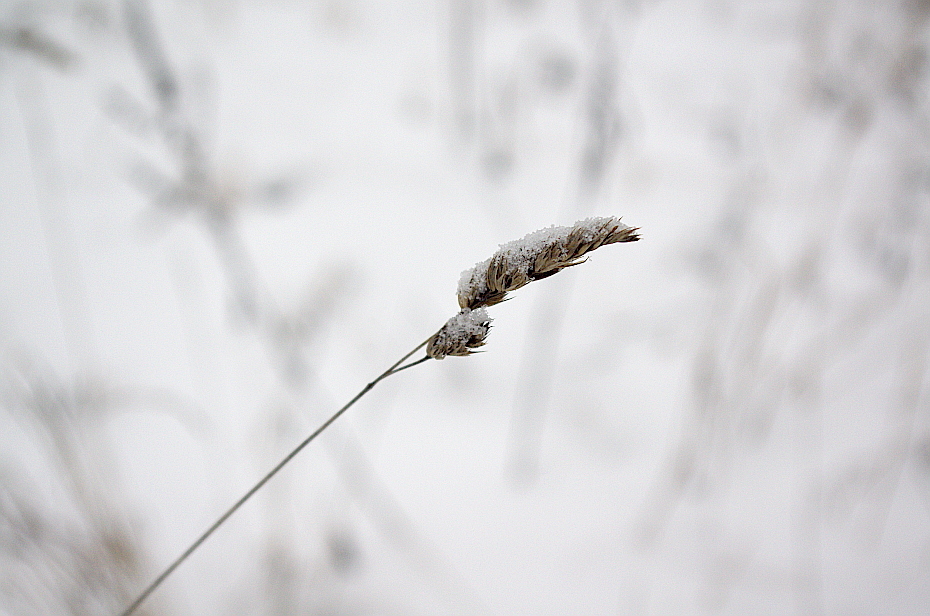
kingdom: Plantae
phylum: Tracheophyta
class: Liliopsida
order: Poales
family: Poaceae
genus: Dactylis
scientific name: Dactylis glomerata
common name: Orchardgrass
